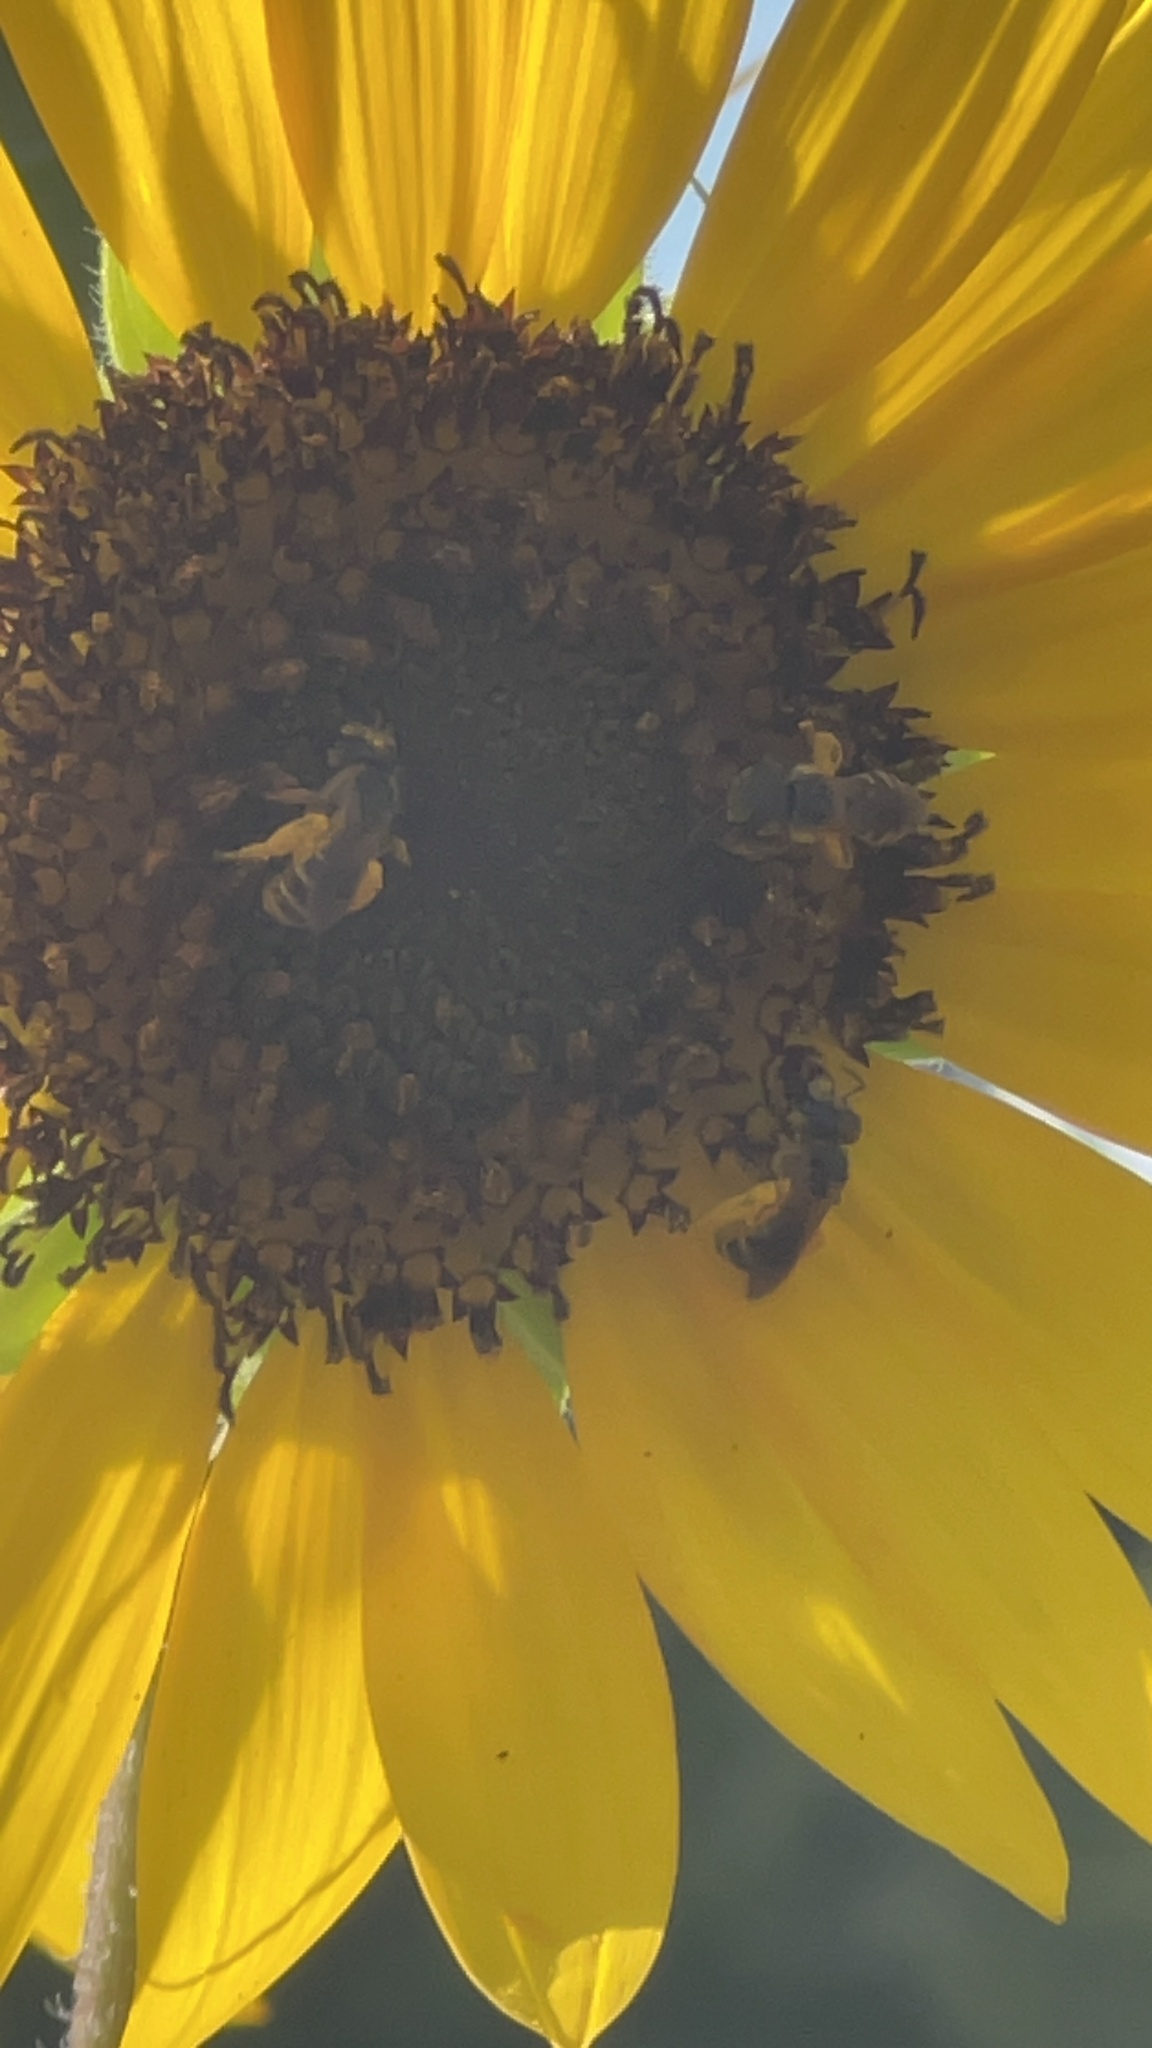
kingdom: Animalia
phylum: Arthropoda
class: Insecta
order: Hymenoptera
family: Halictidae
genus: Halictus
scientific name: Halictus poeyi
